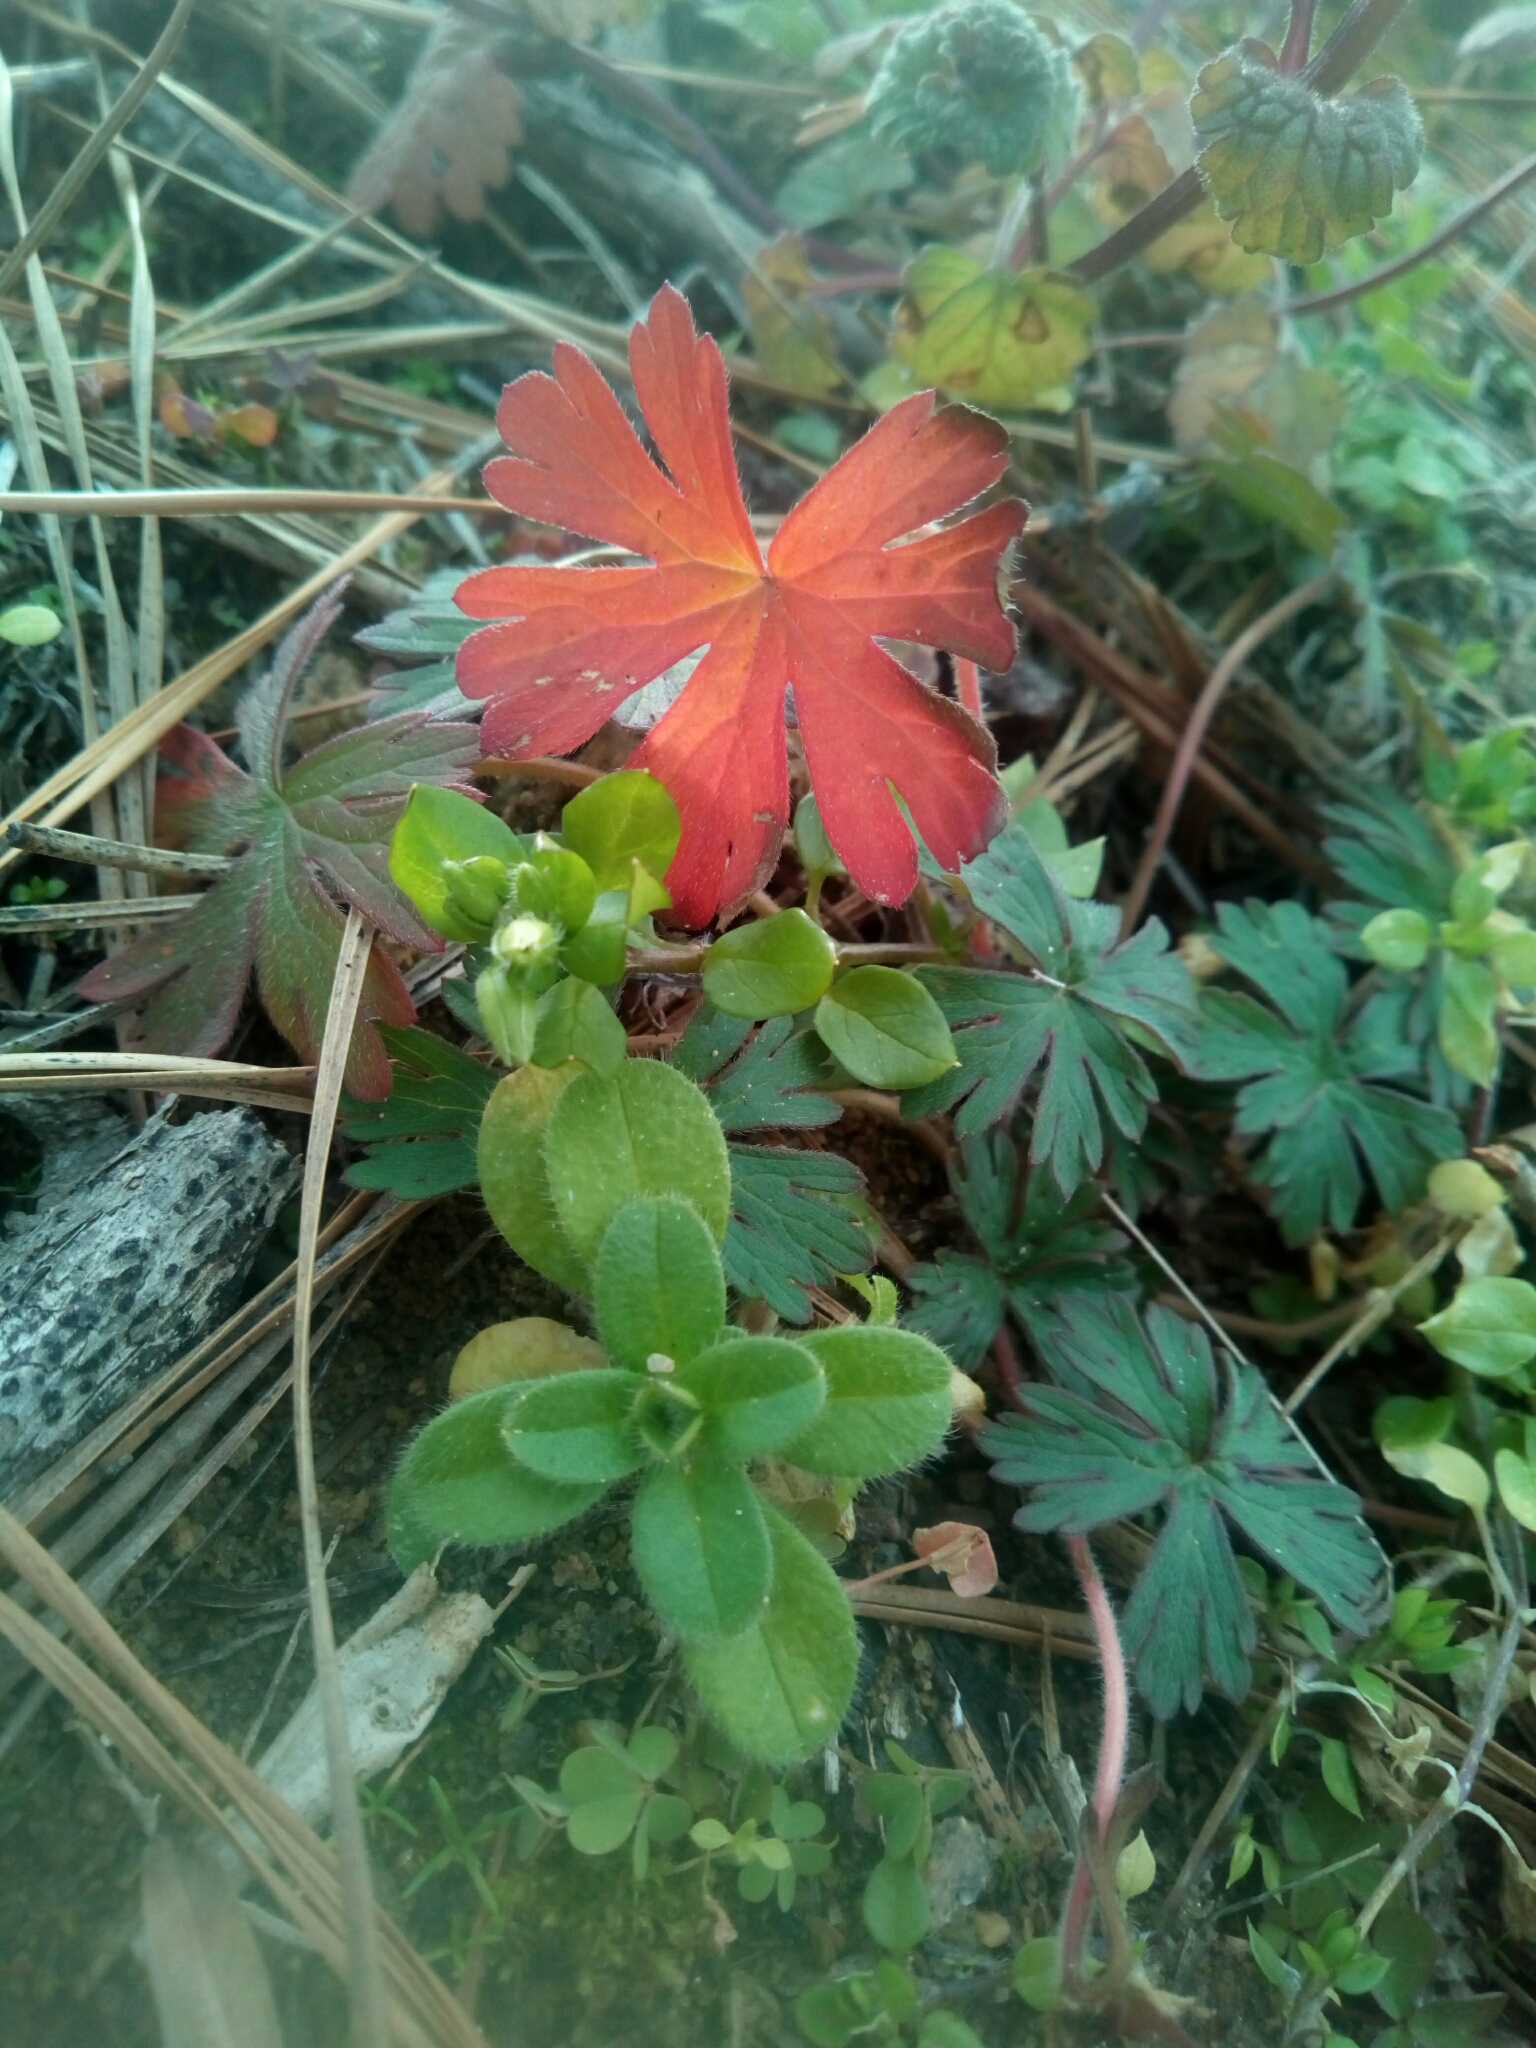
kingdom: Plantae
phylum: Tracheophyta
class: Magnoliopsida
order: Geraniales
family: Geraniaceae
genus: Geranium
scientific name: Geranium carolinianum
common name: Carolina crane's-bill
